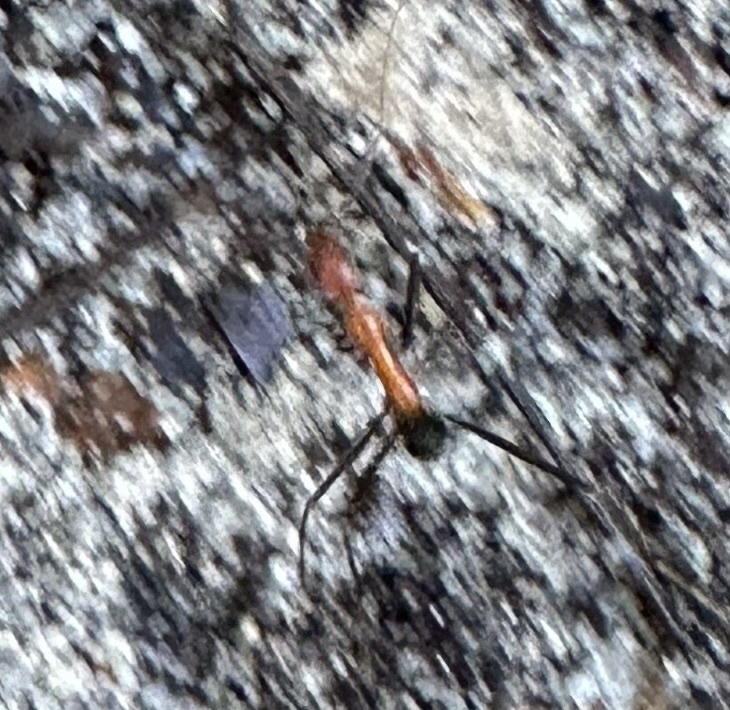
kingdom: Animalia
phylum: Arthropoda
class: Insecta
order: Hymenoptera
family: Formicidae
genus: Leptomyrmex
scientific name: Leptomyrmex rufithorax
